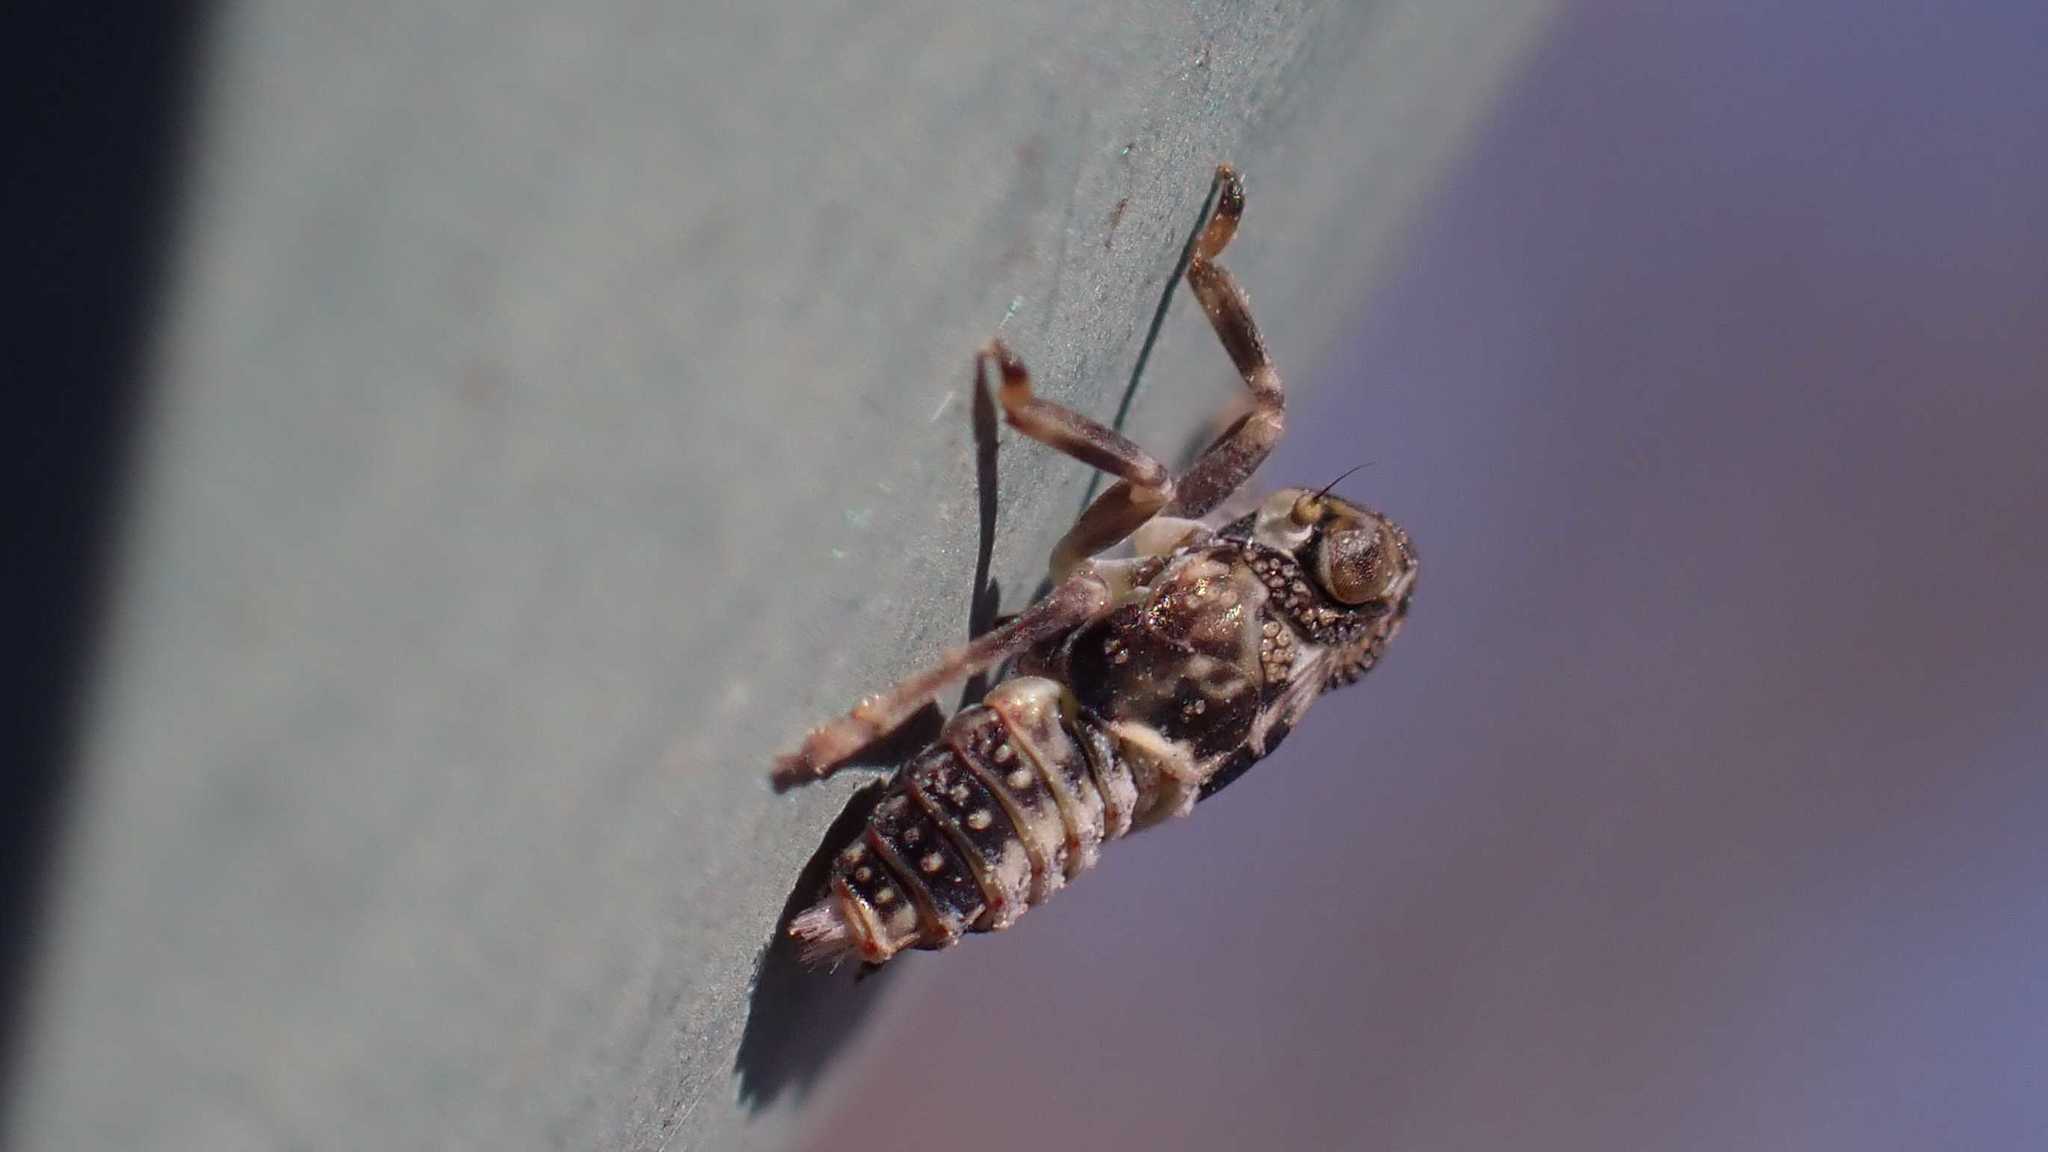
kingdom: Animalia
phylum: Arthropoda
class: Insecta
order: Hemiptera
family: Issidae
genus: Issus
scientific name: Issus coleoptratus
